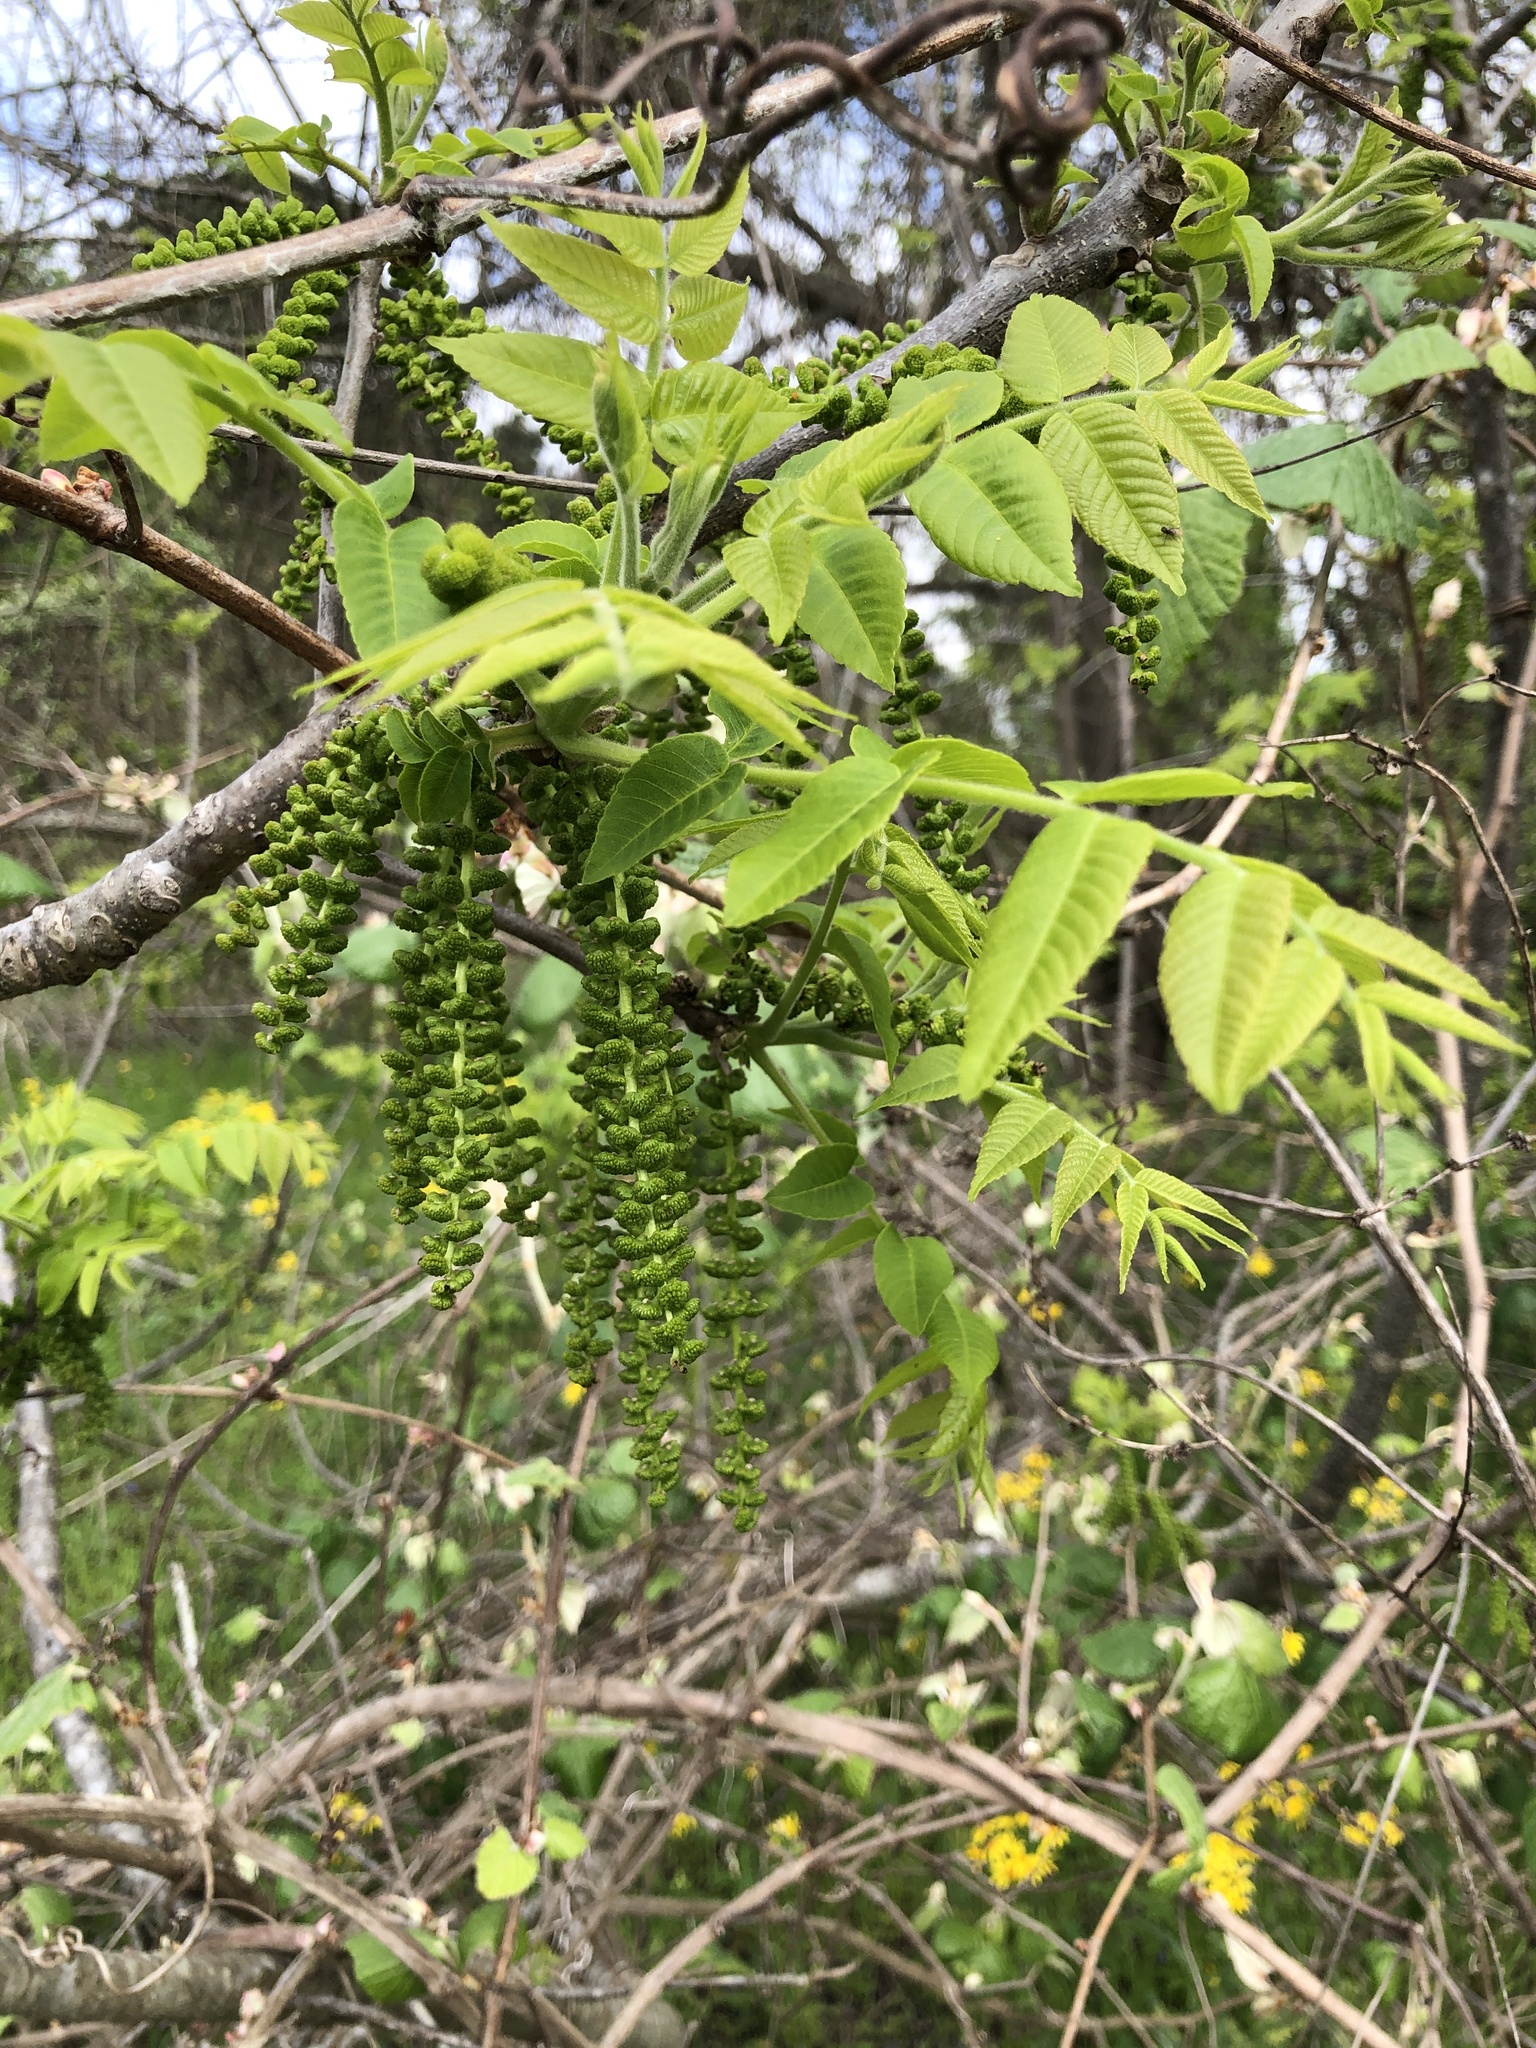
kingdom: Plantae
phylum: Tracheophyta
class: Magnoliopsida
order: Fagales
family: Juglandaceae
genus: Juglans
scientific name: Juglans nigra
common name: Black walnut
